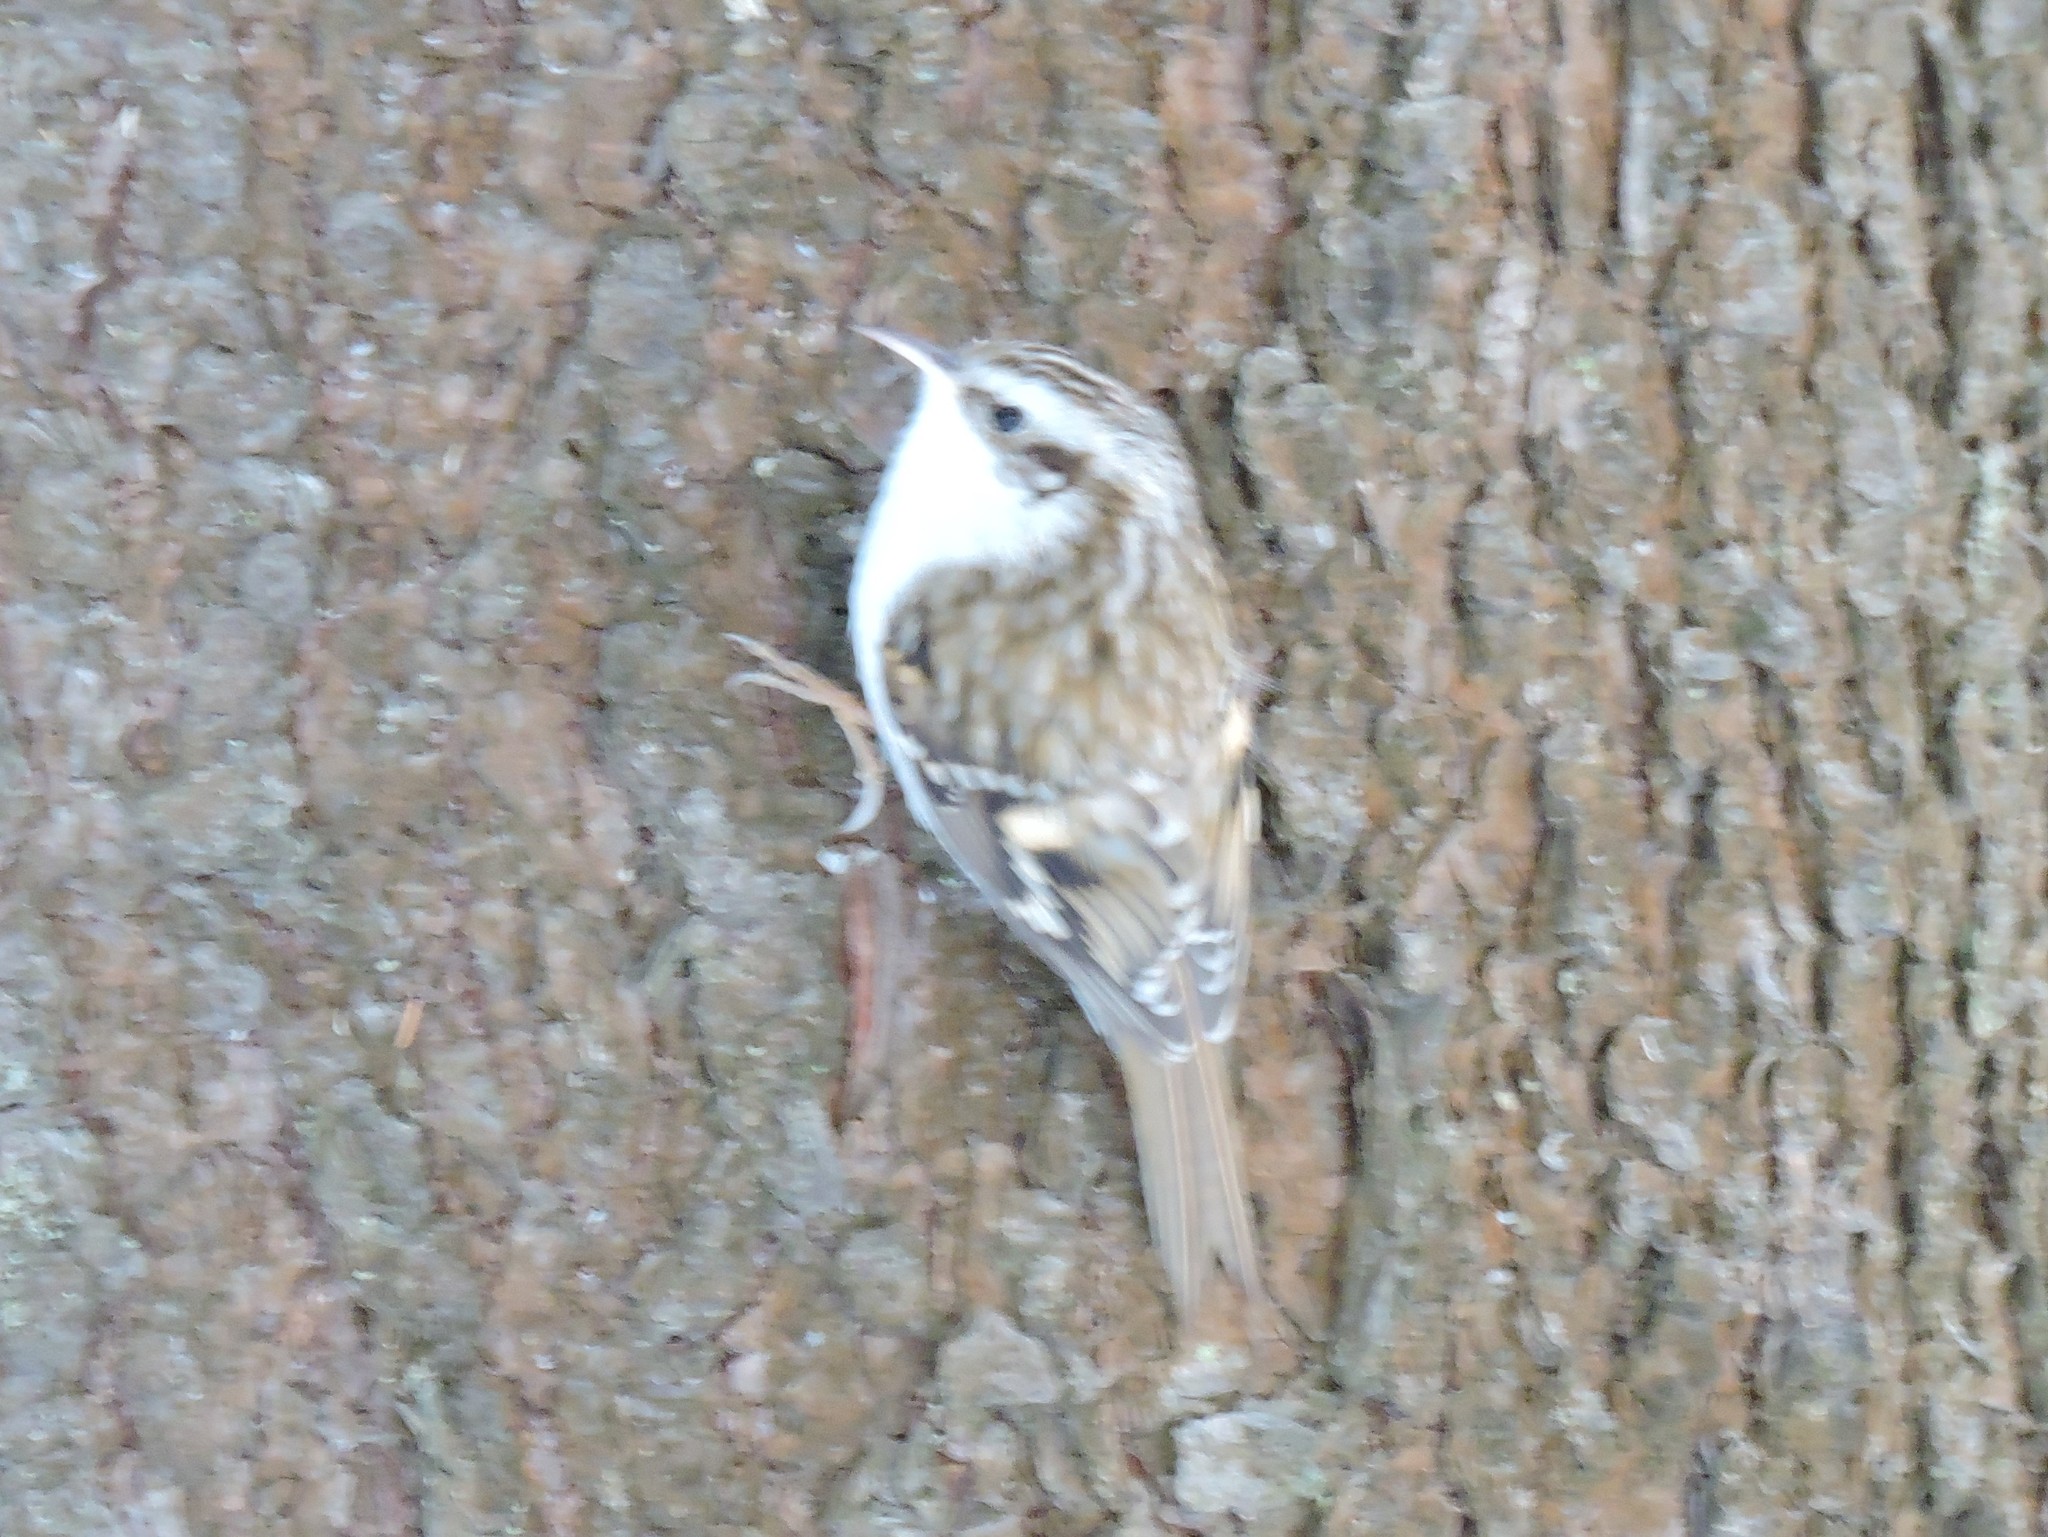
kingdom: Animalia
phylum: Chordata
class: Aves
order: Passeriformes
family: Certhiidae
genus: Certhia
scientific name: Certhia familiaris
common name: Eurasian treecreeper
